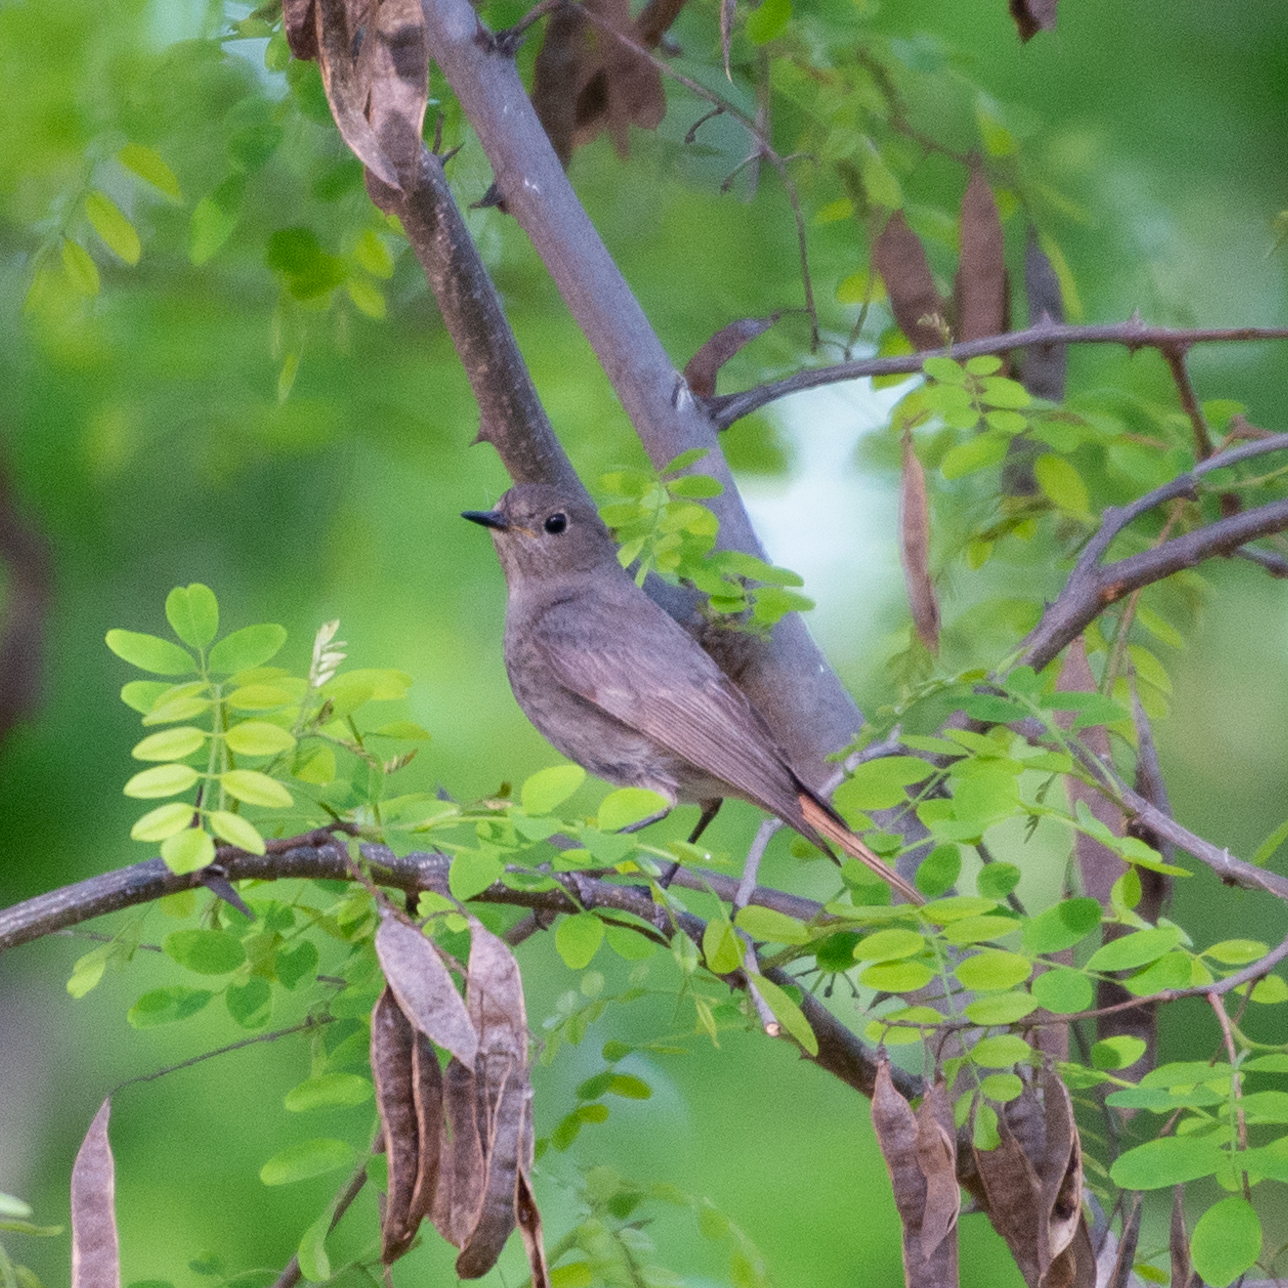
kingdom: Animalia
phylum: Chordata
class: Aves
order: Passeriformes
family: Muscicapidae
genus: Phoenicurus
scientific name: Phoenicurus ochruros
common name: Black redstart
